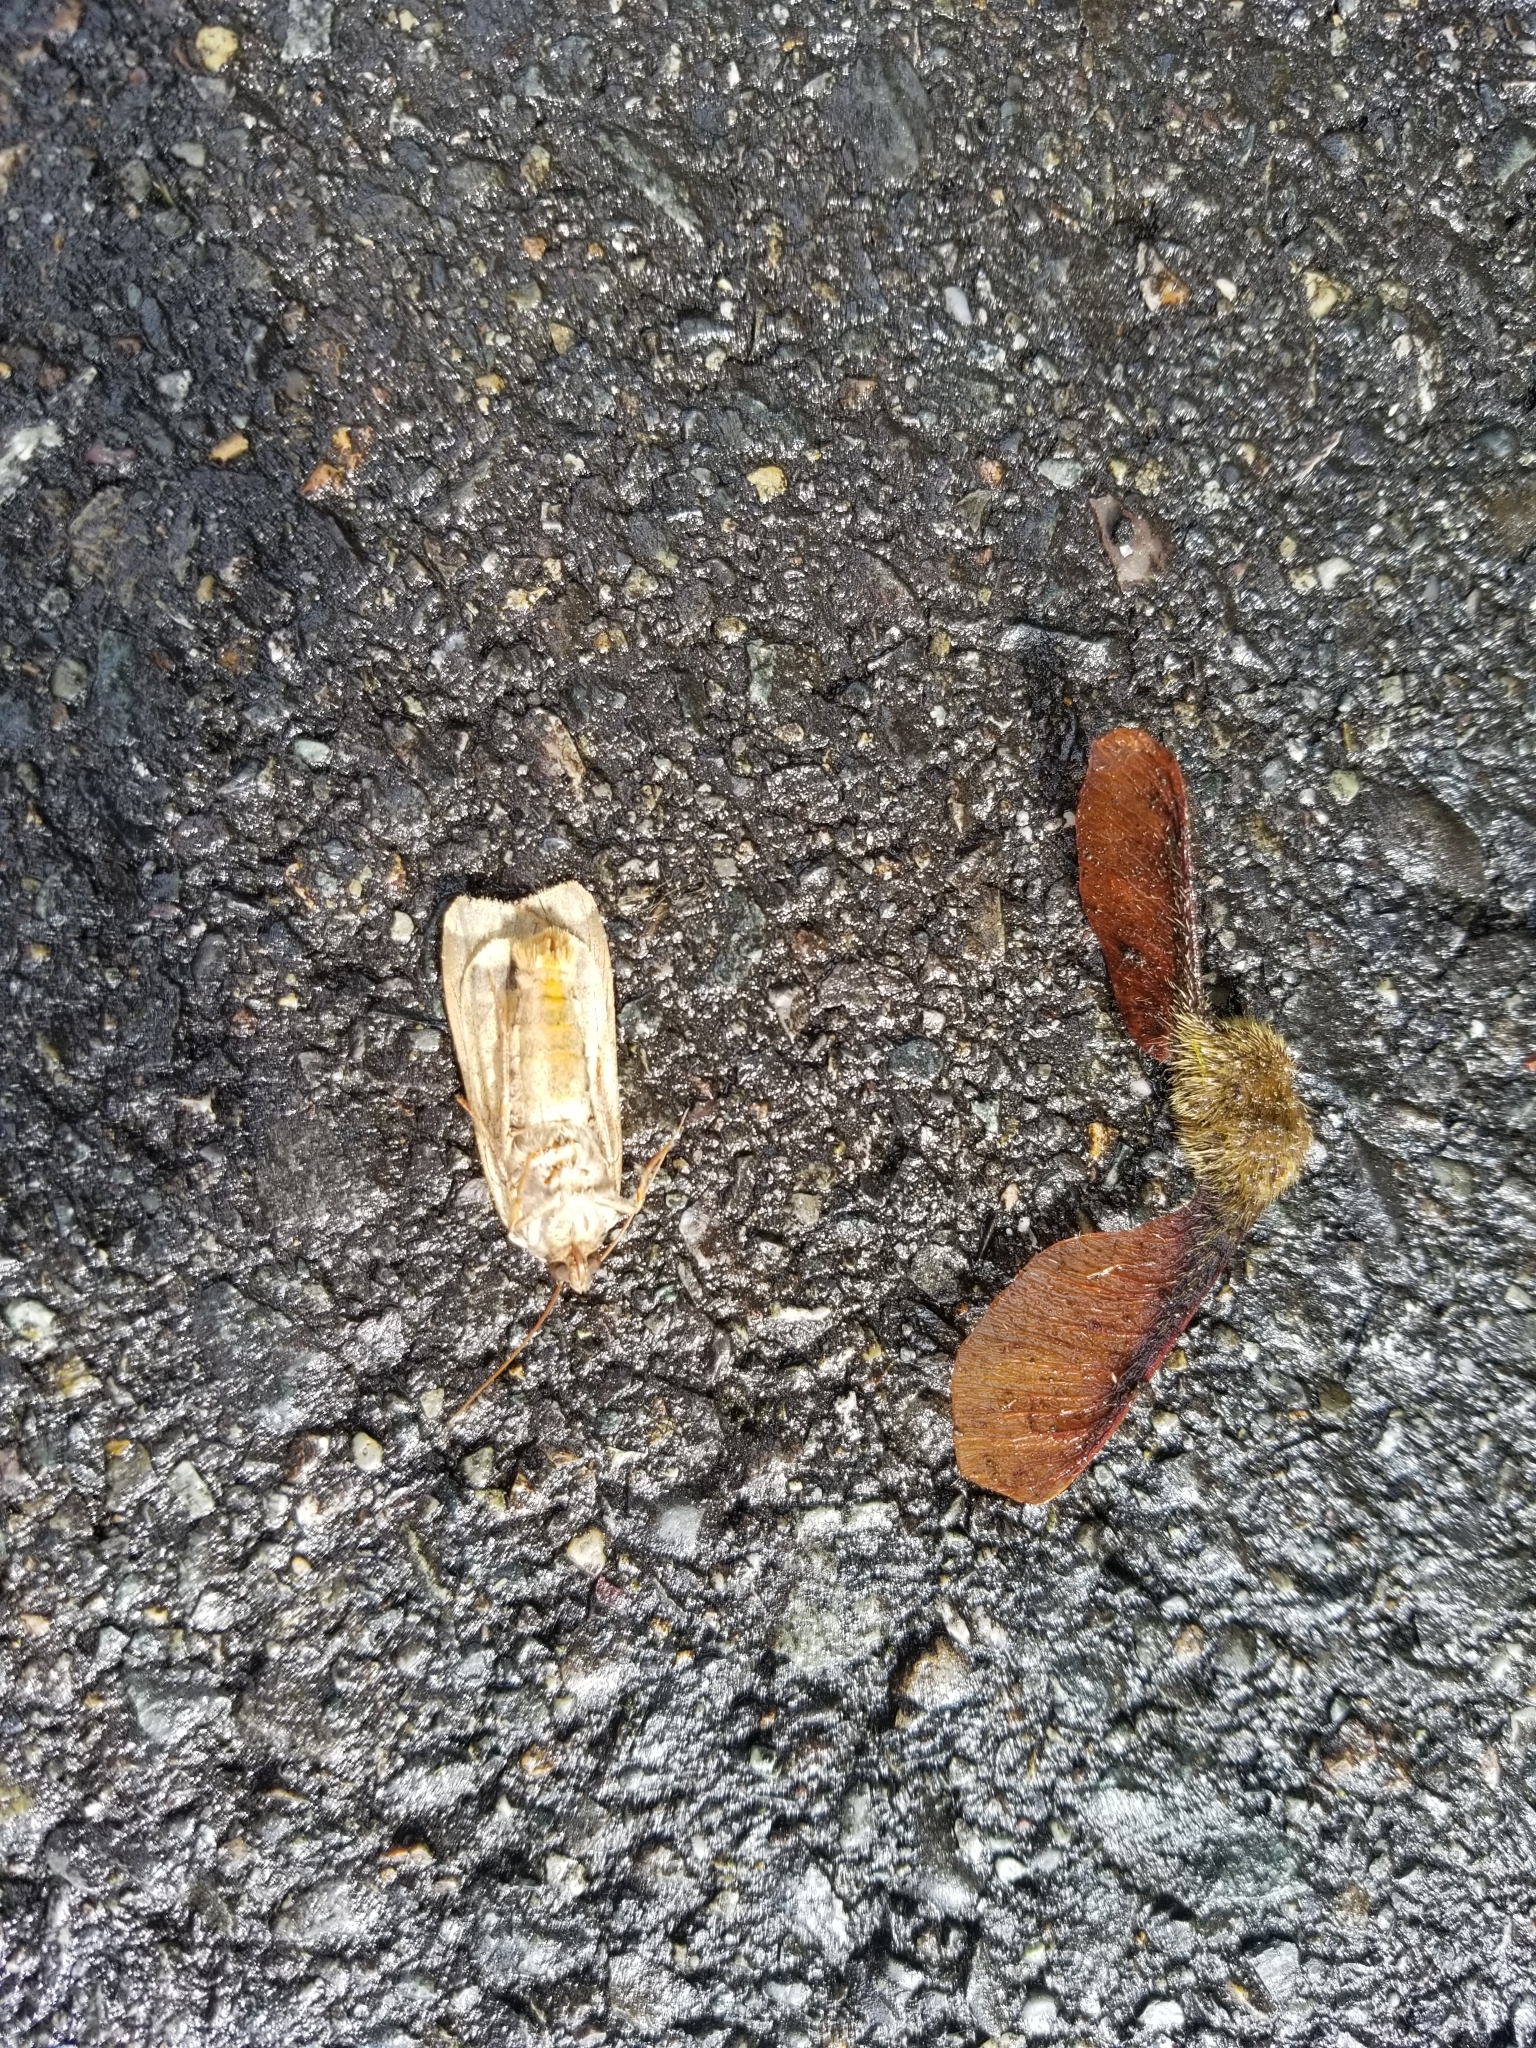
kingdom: Animalia
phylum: Arthropoda
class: Insecta
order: Lepidoptera
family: Noctuidae
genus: Noctua
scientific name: Noctua pronuba
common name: Large yellow underwing
